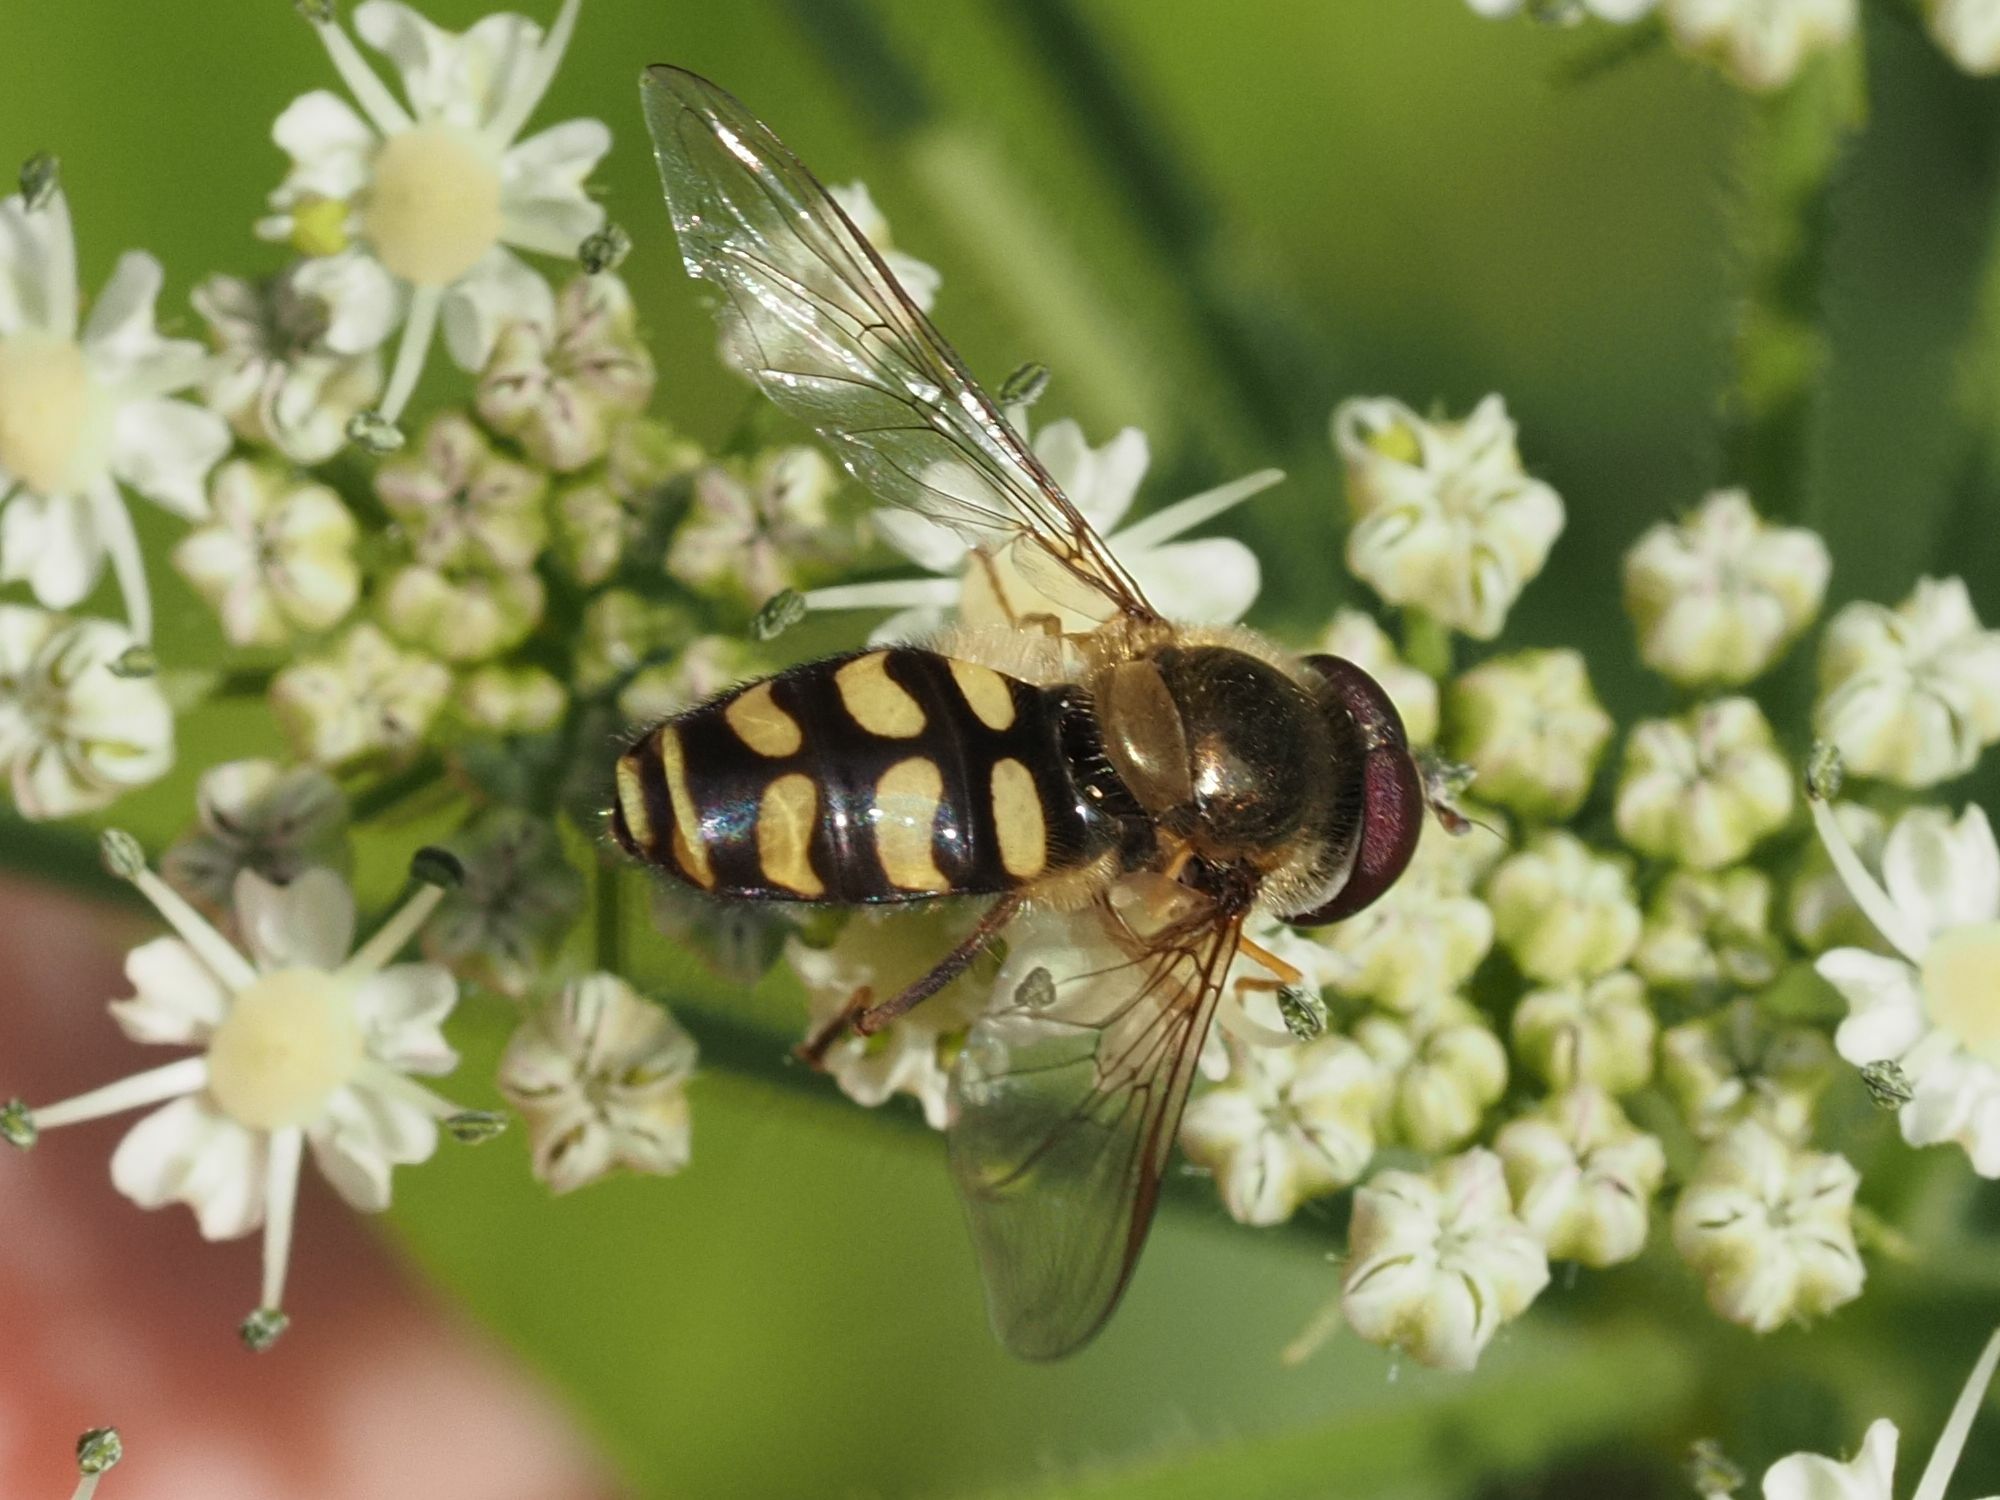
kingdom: Animalia
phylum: Arthropoda
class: Insecta
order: Diptera
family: Syrphidae
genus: Lapposyrphus
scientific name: Lapposyrphus lapponicus
